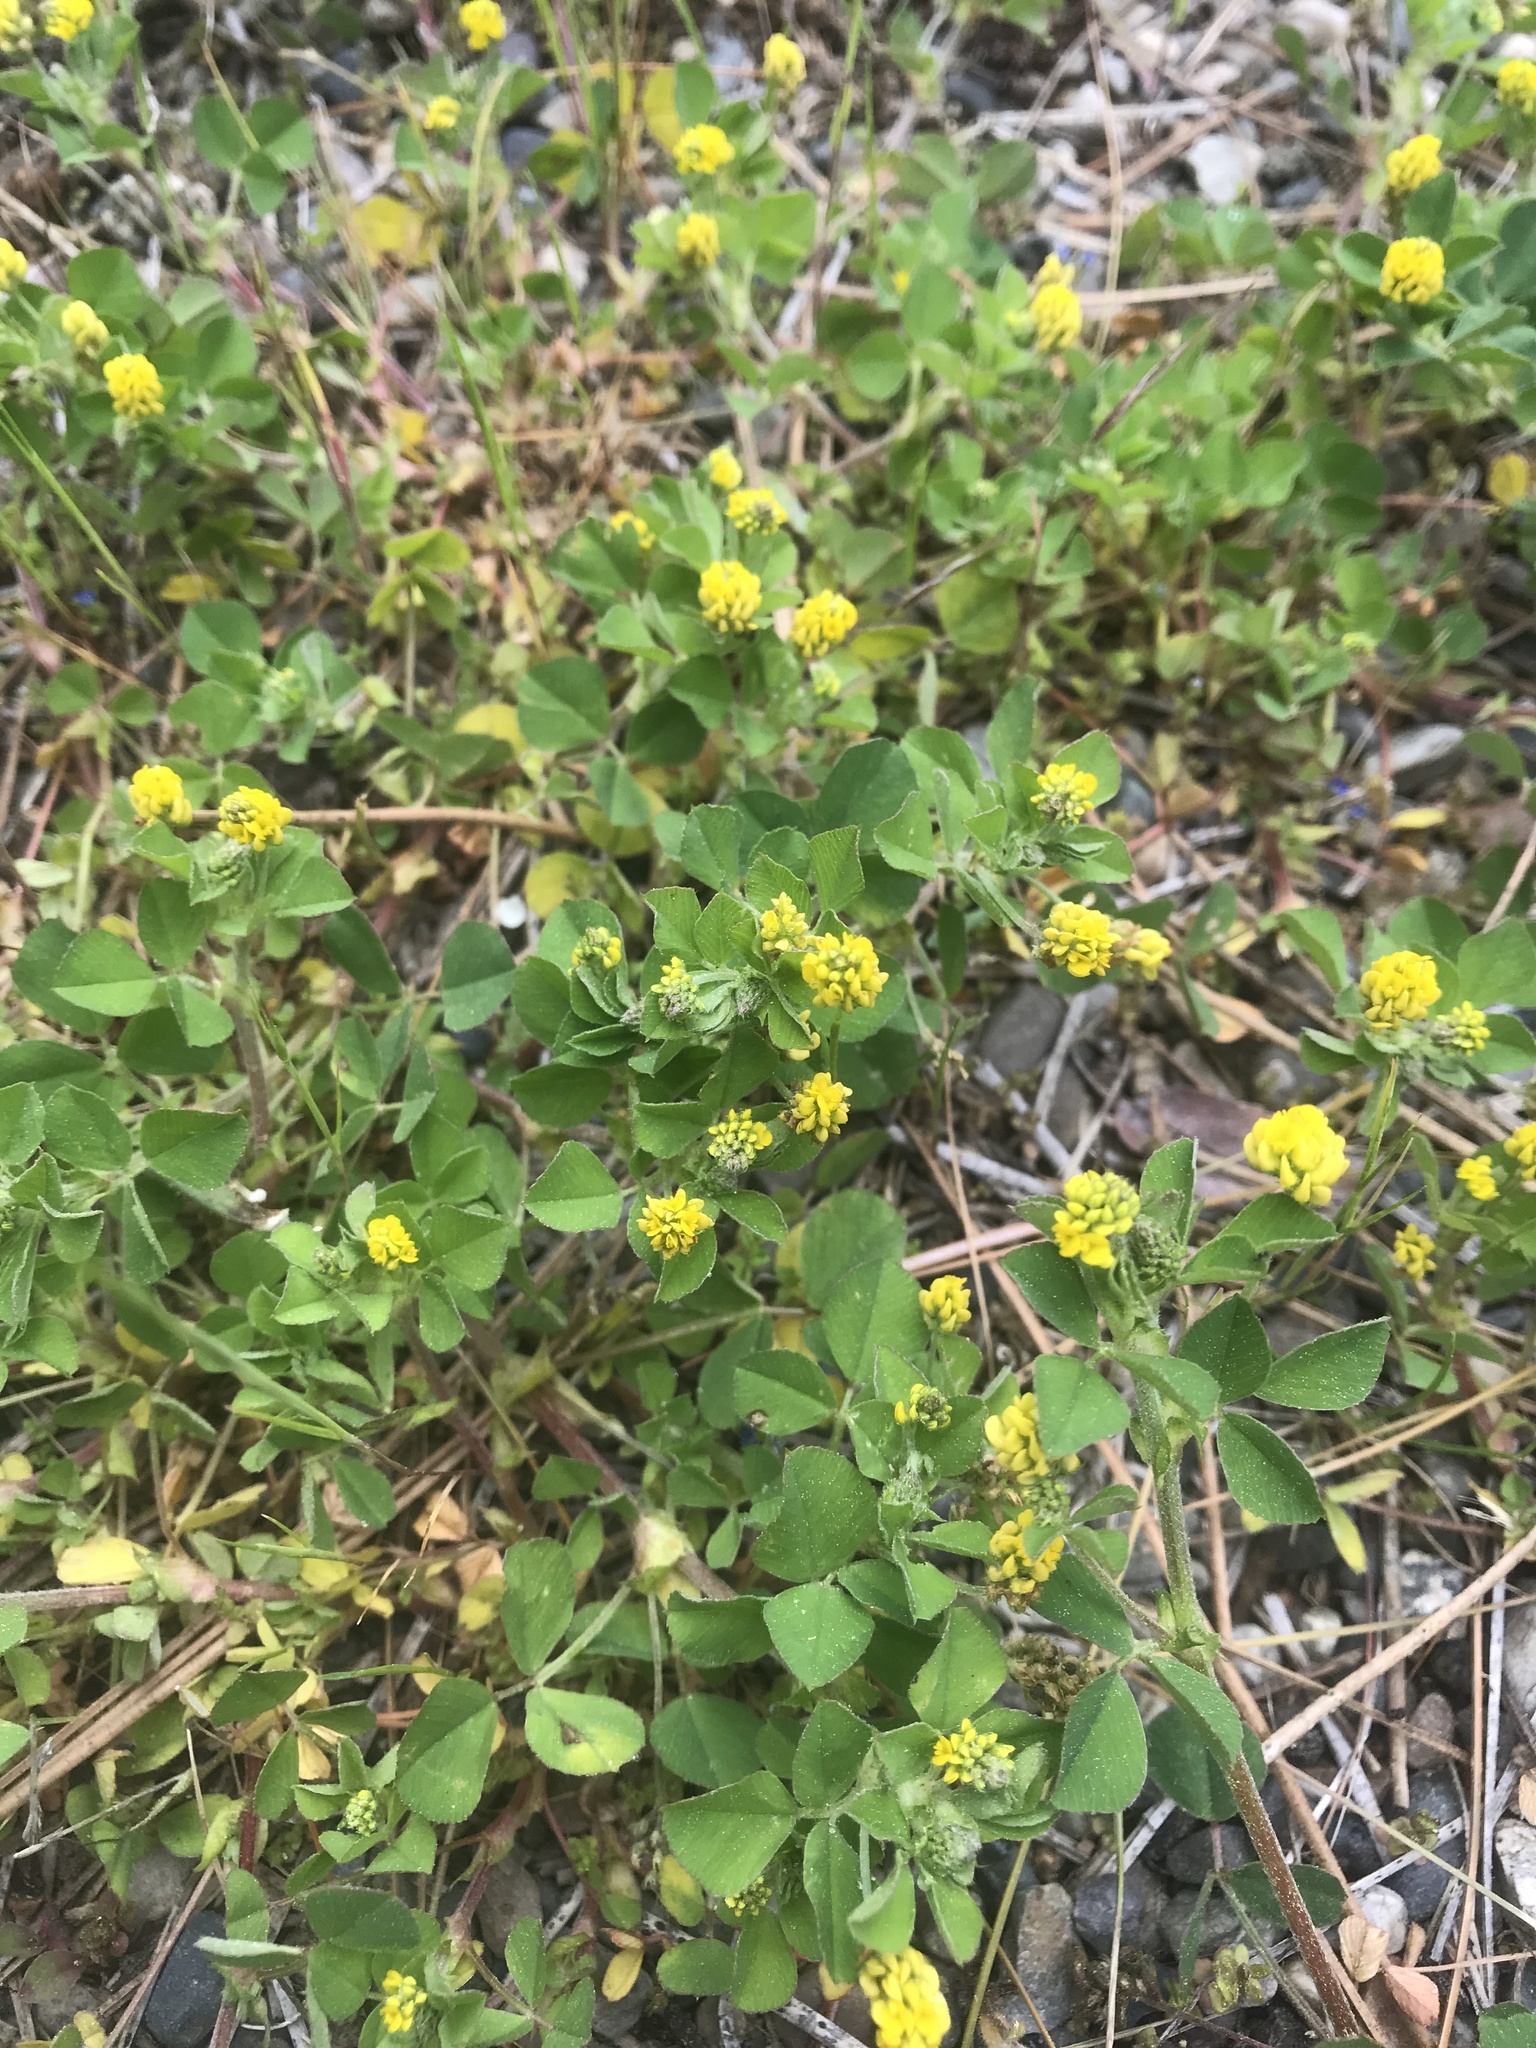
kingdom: Plantae
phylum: Tracheophyta
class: Magnoliopsida
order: Fabales
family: Fabaceae
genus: Medicago
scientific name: Medicago lupulina
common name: Black medick
